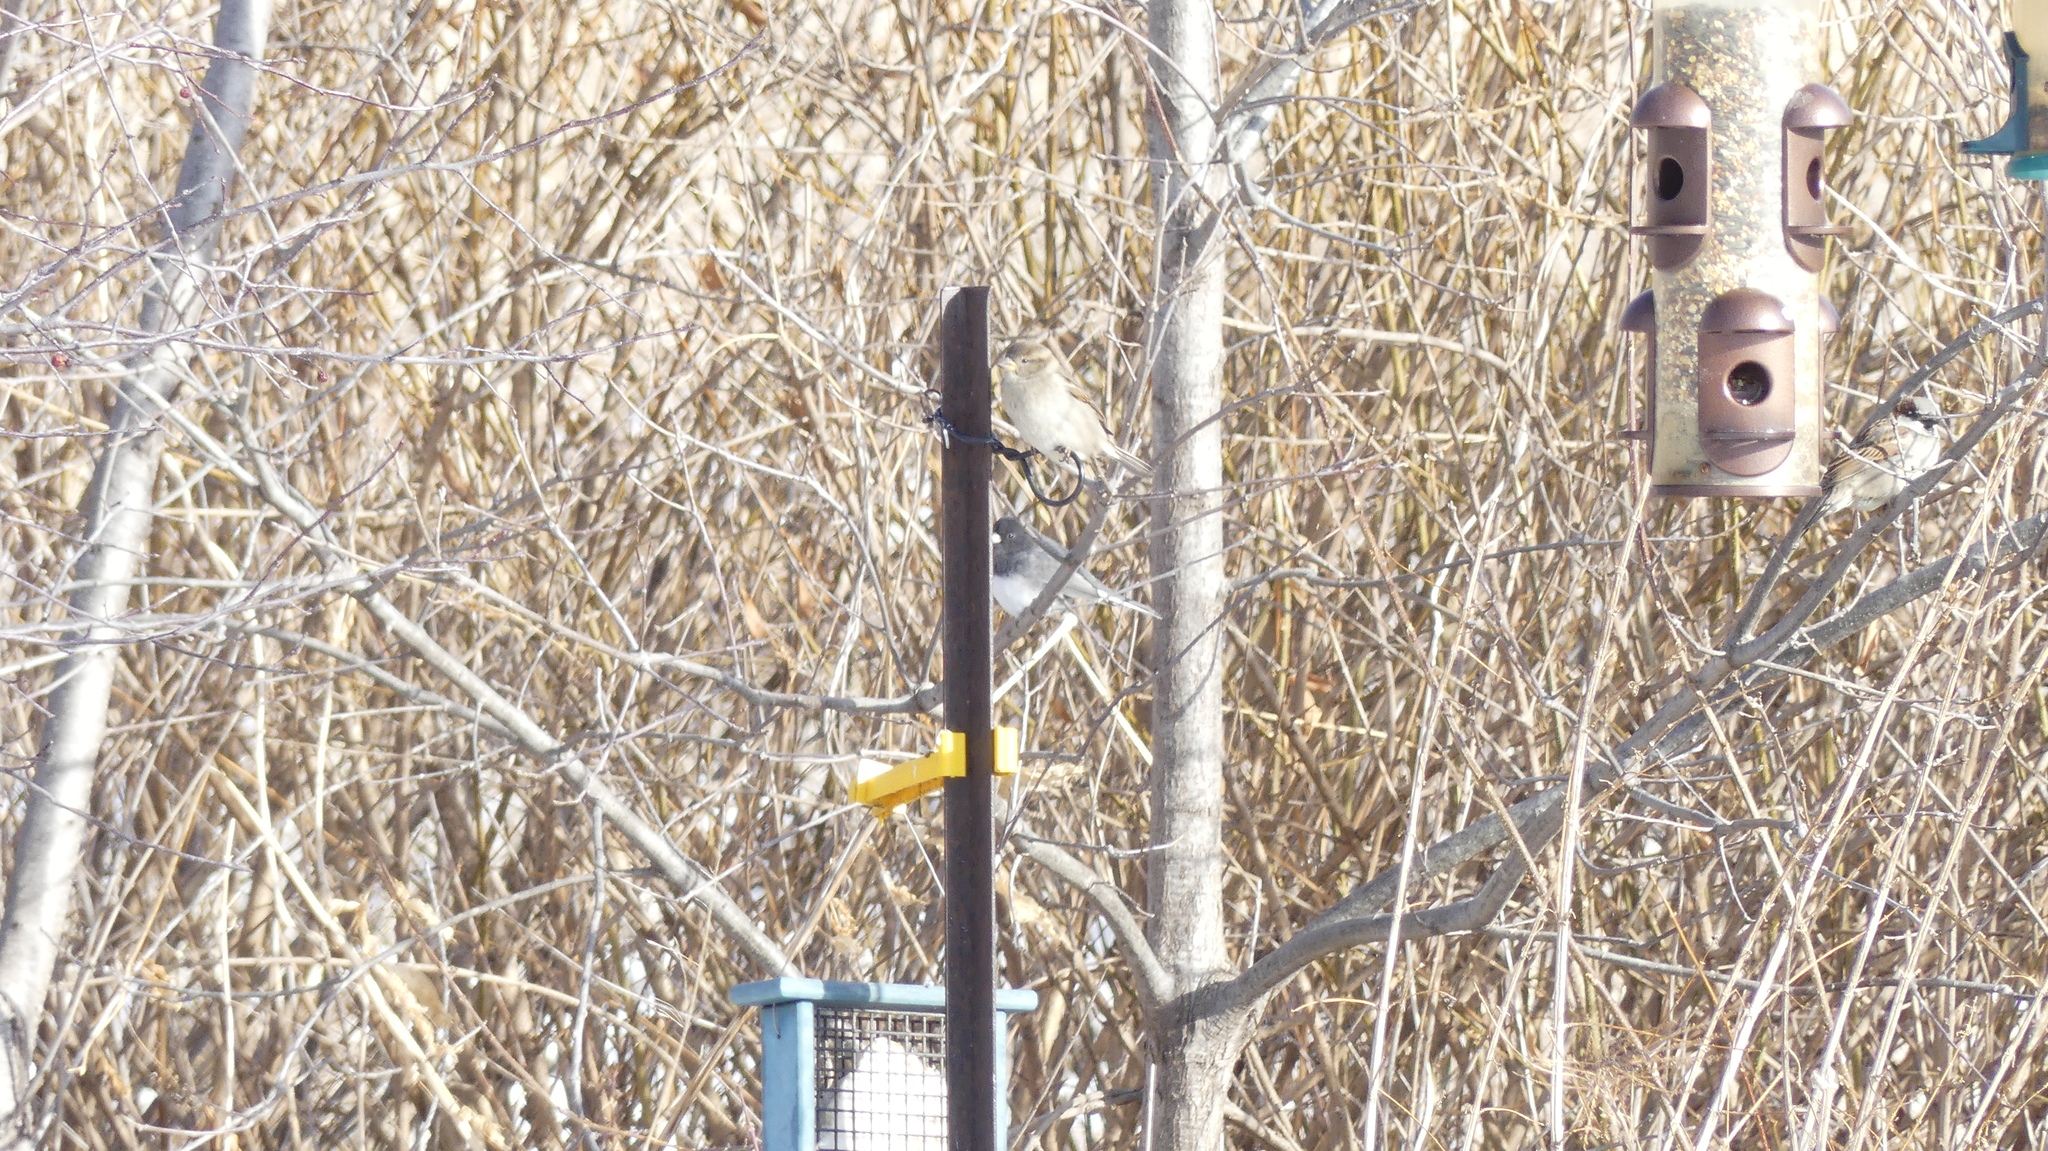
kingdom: Animalia
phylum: Chordata
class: Aves
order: Passeriformes
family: Passerellidae
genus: Junco
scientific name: Junco hyemalis
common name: Dark-eyed junco
